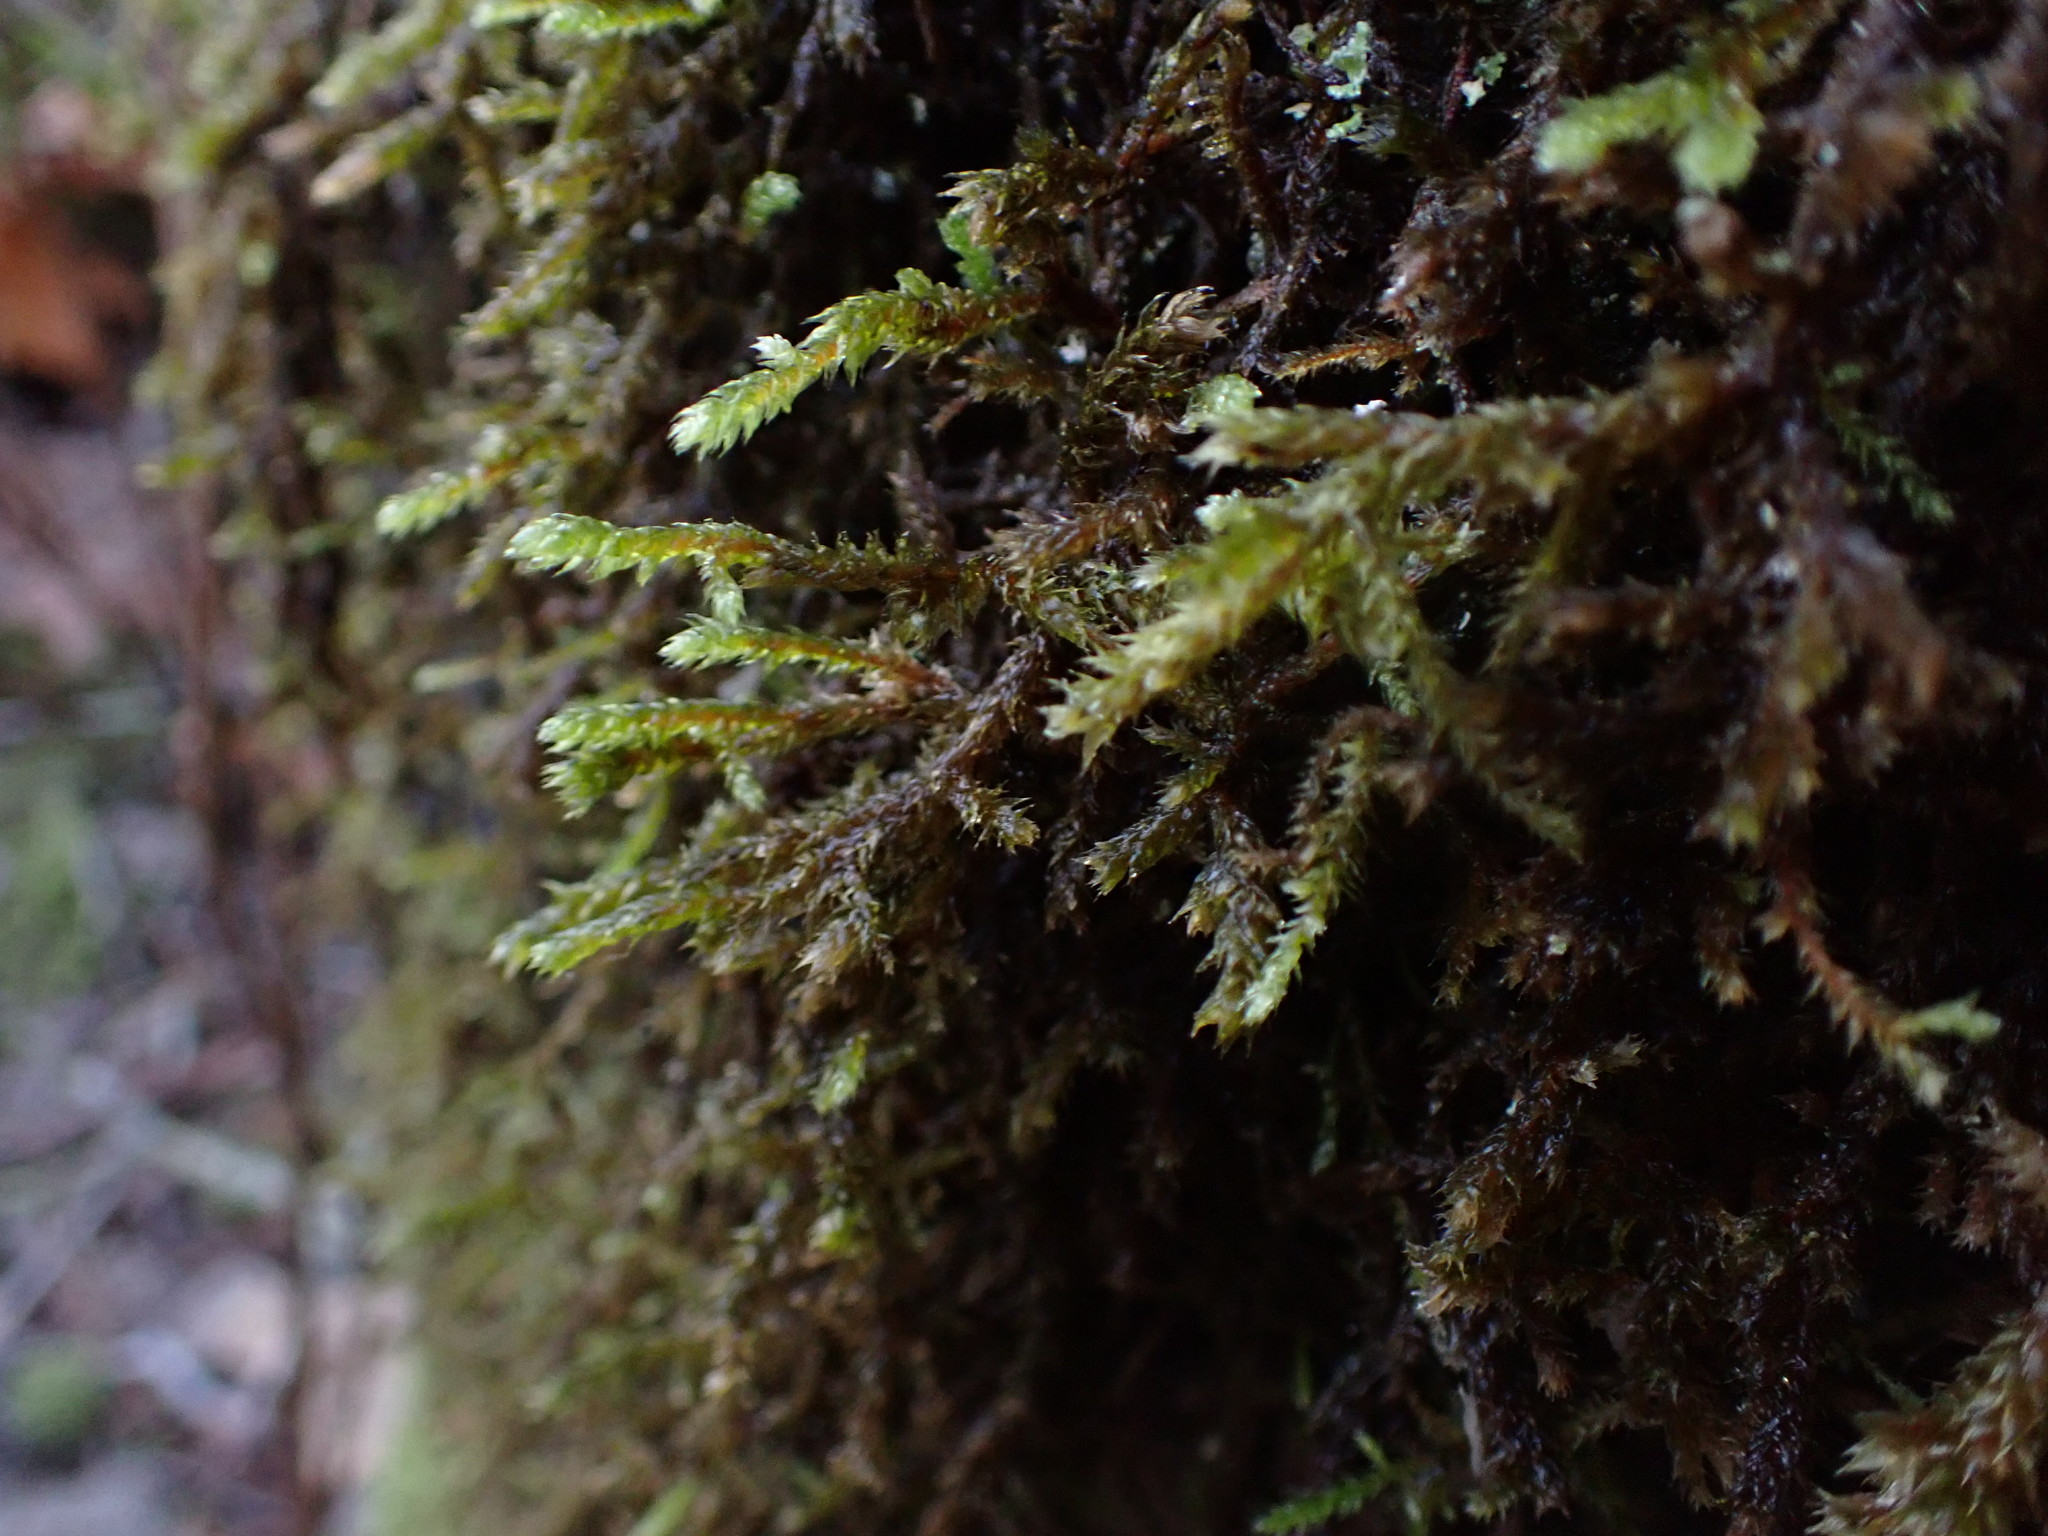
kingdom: Plantae
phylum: Bryophyta
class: Bryopsida
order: Hypnales
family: Antitrichiaceae
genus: Antitrichia
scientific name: Antitrichia curtipendula
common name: Pendulous wing-moss
